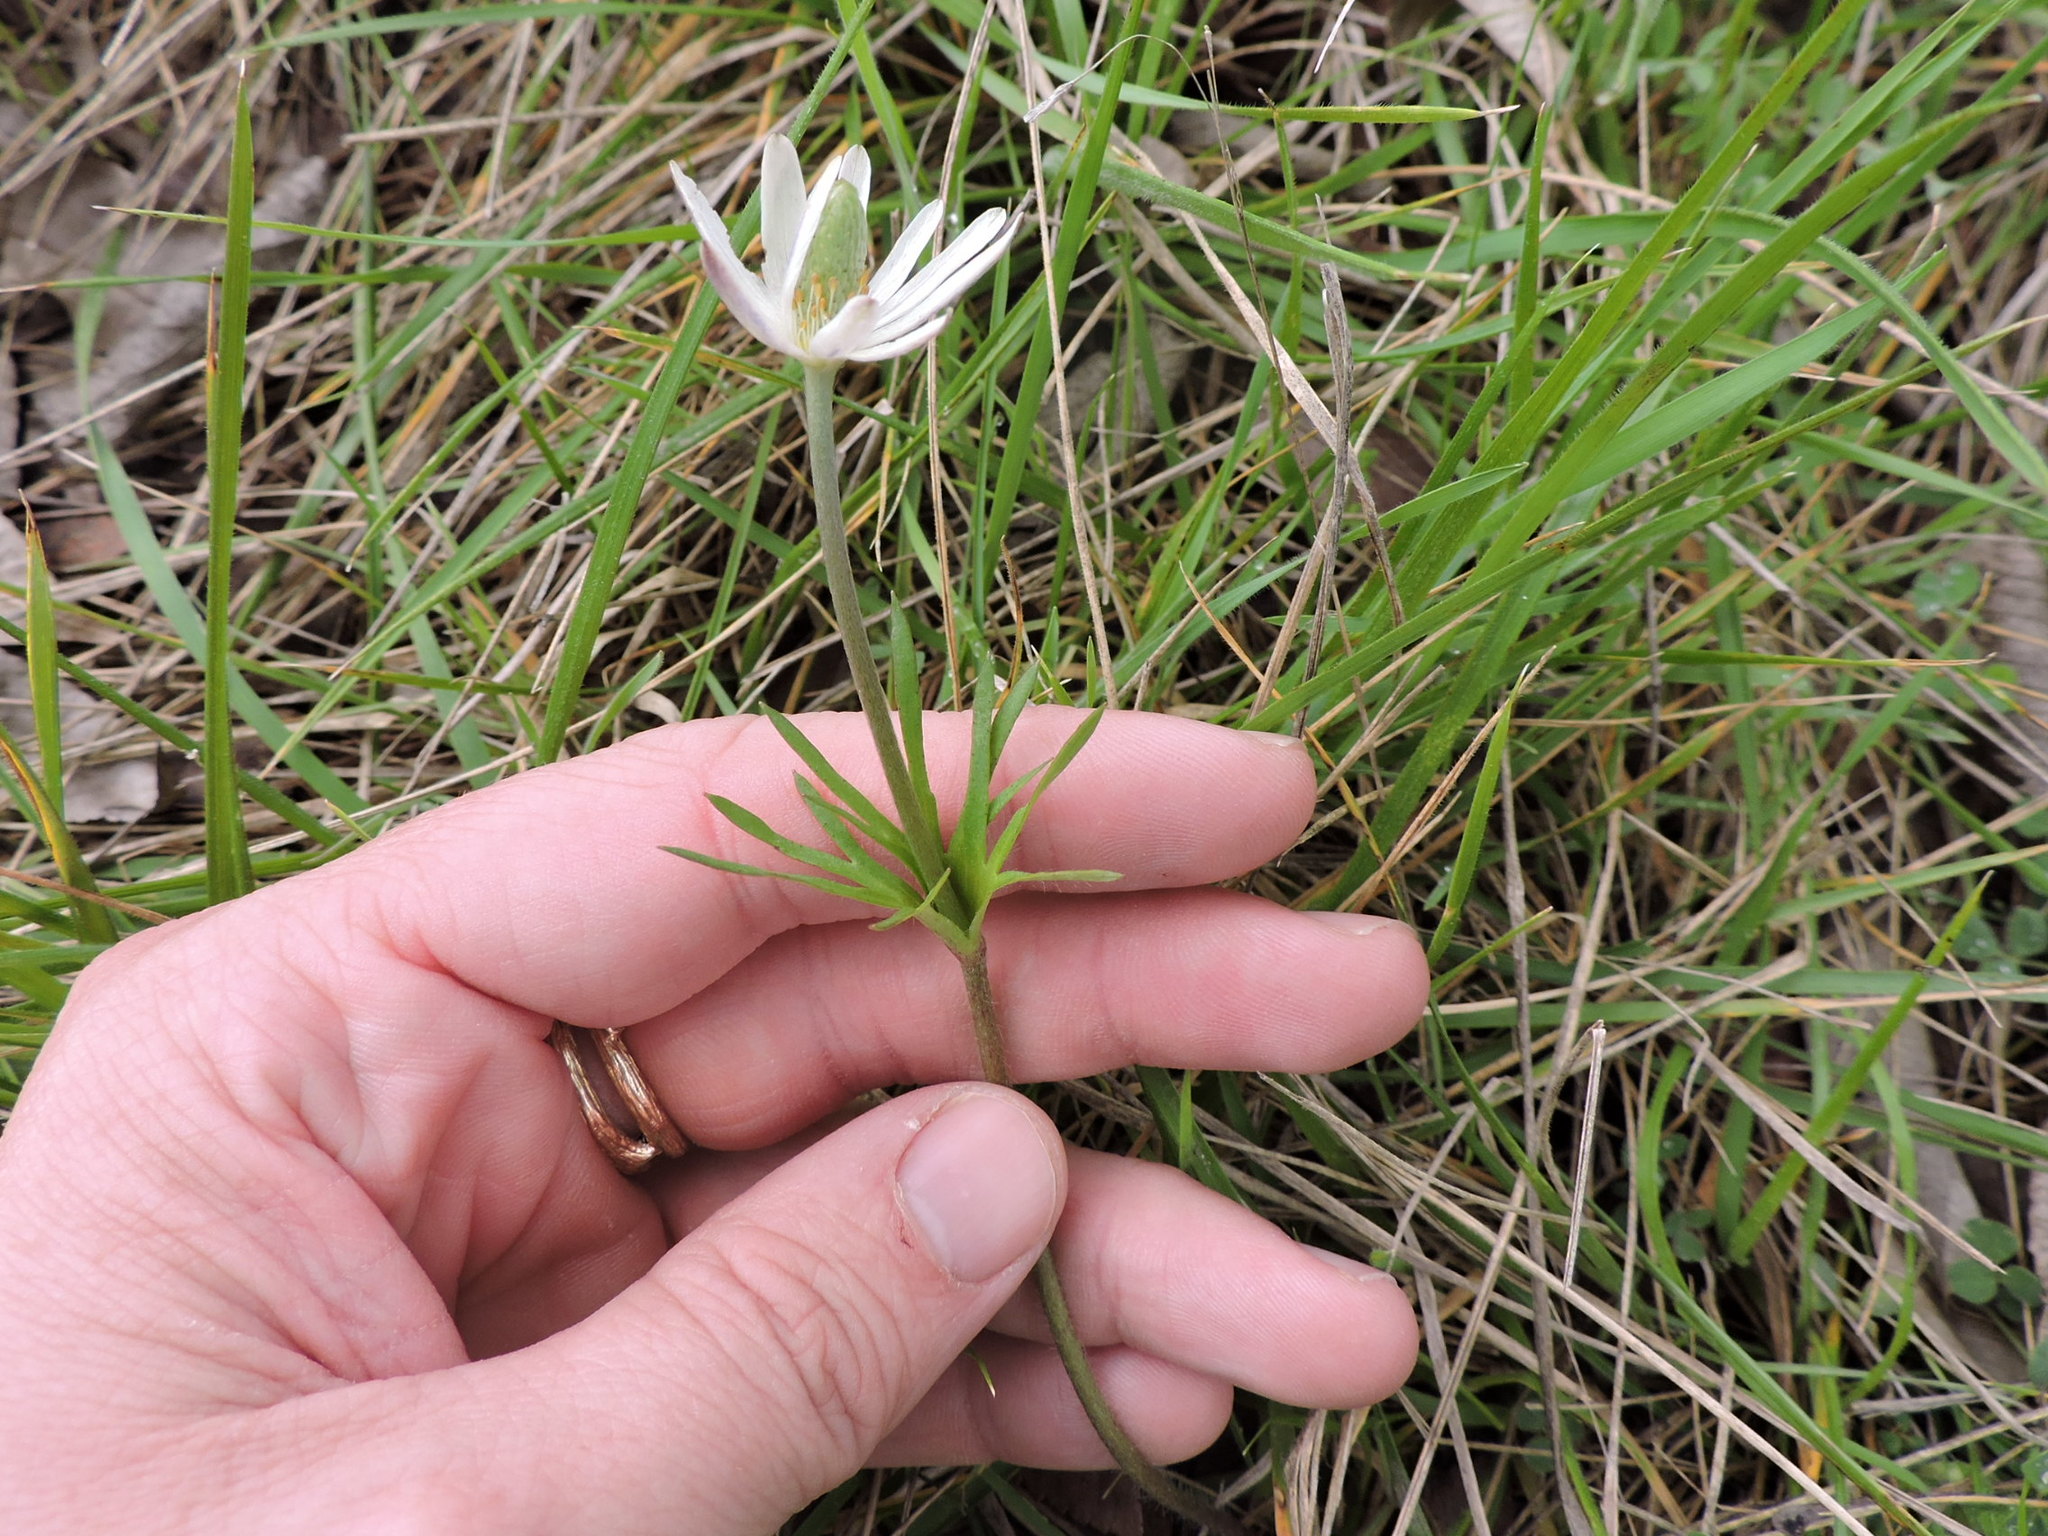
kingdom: Plantae
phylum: Tracheophyta
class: Magnoliopsida
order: Ranunculales
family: Ranunculaceae
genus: Anemone
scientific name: Anemone berlandieri
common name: Ten-petal anemone
